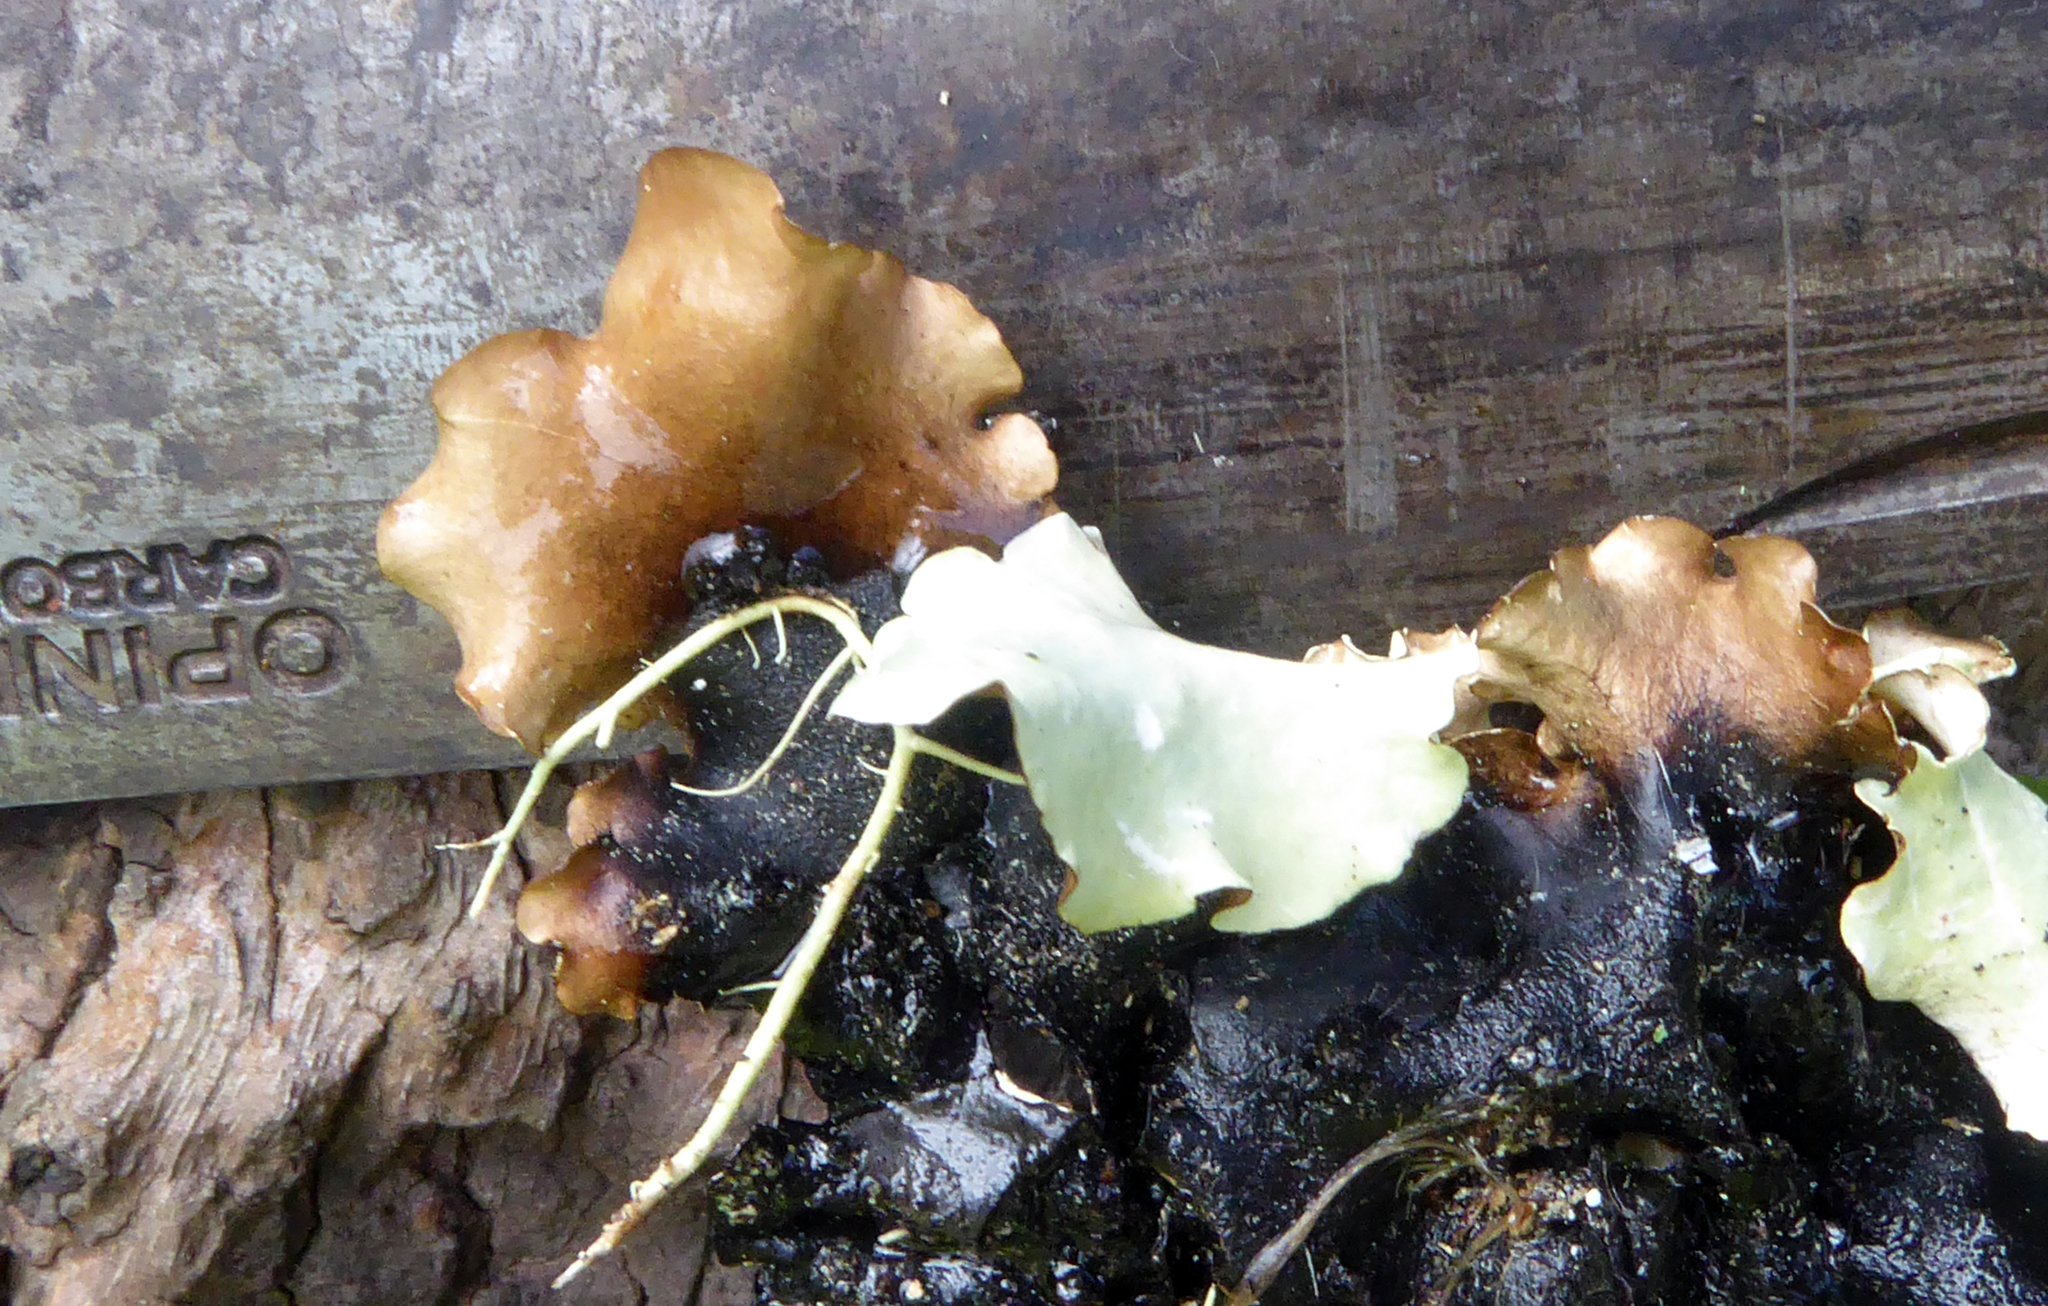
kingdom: Fungi
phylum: Ascomycota
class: Lecanoromycetes
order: Lecanorales
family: Parmeliaceae
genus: Parmotrema
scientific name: Parmotrema robustum
